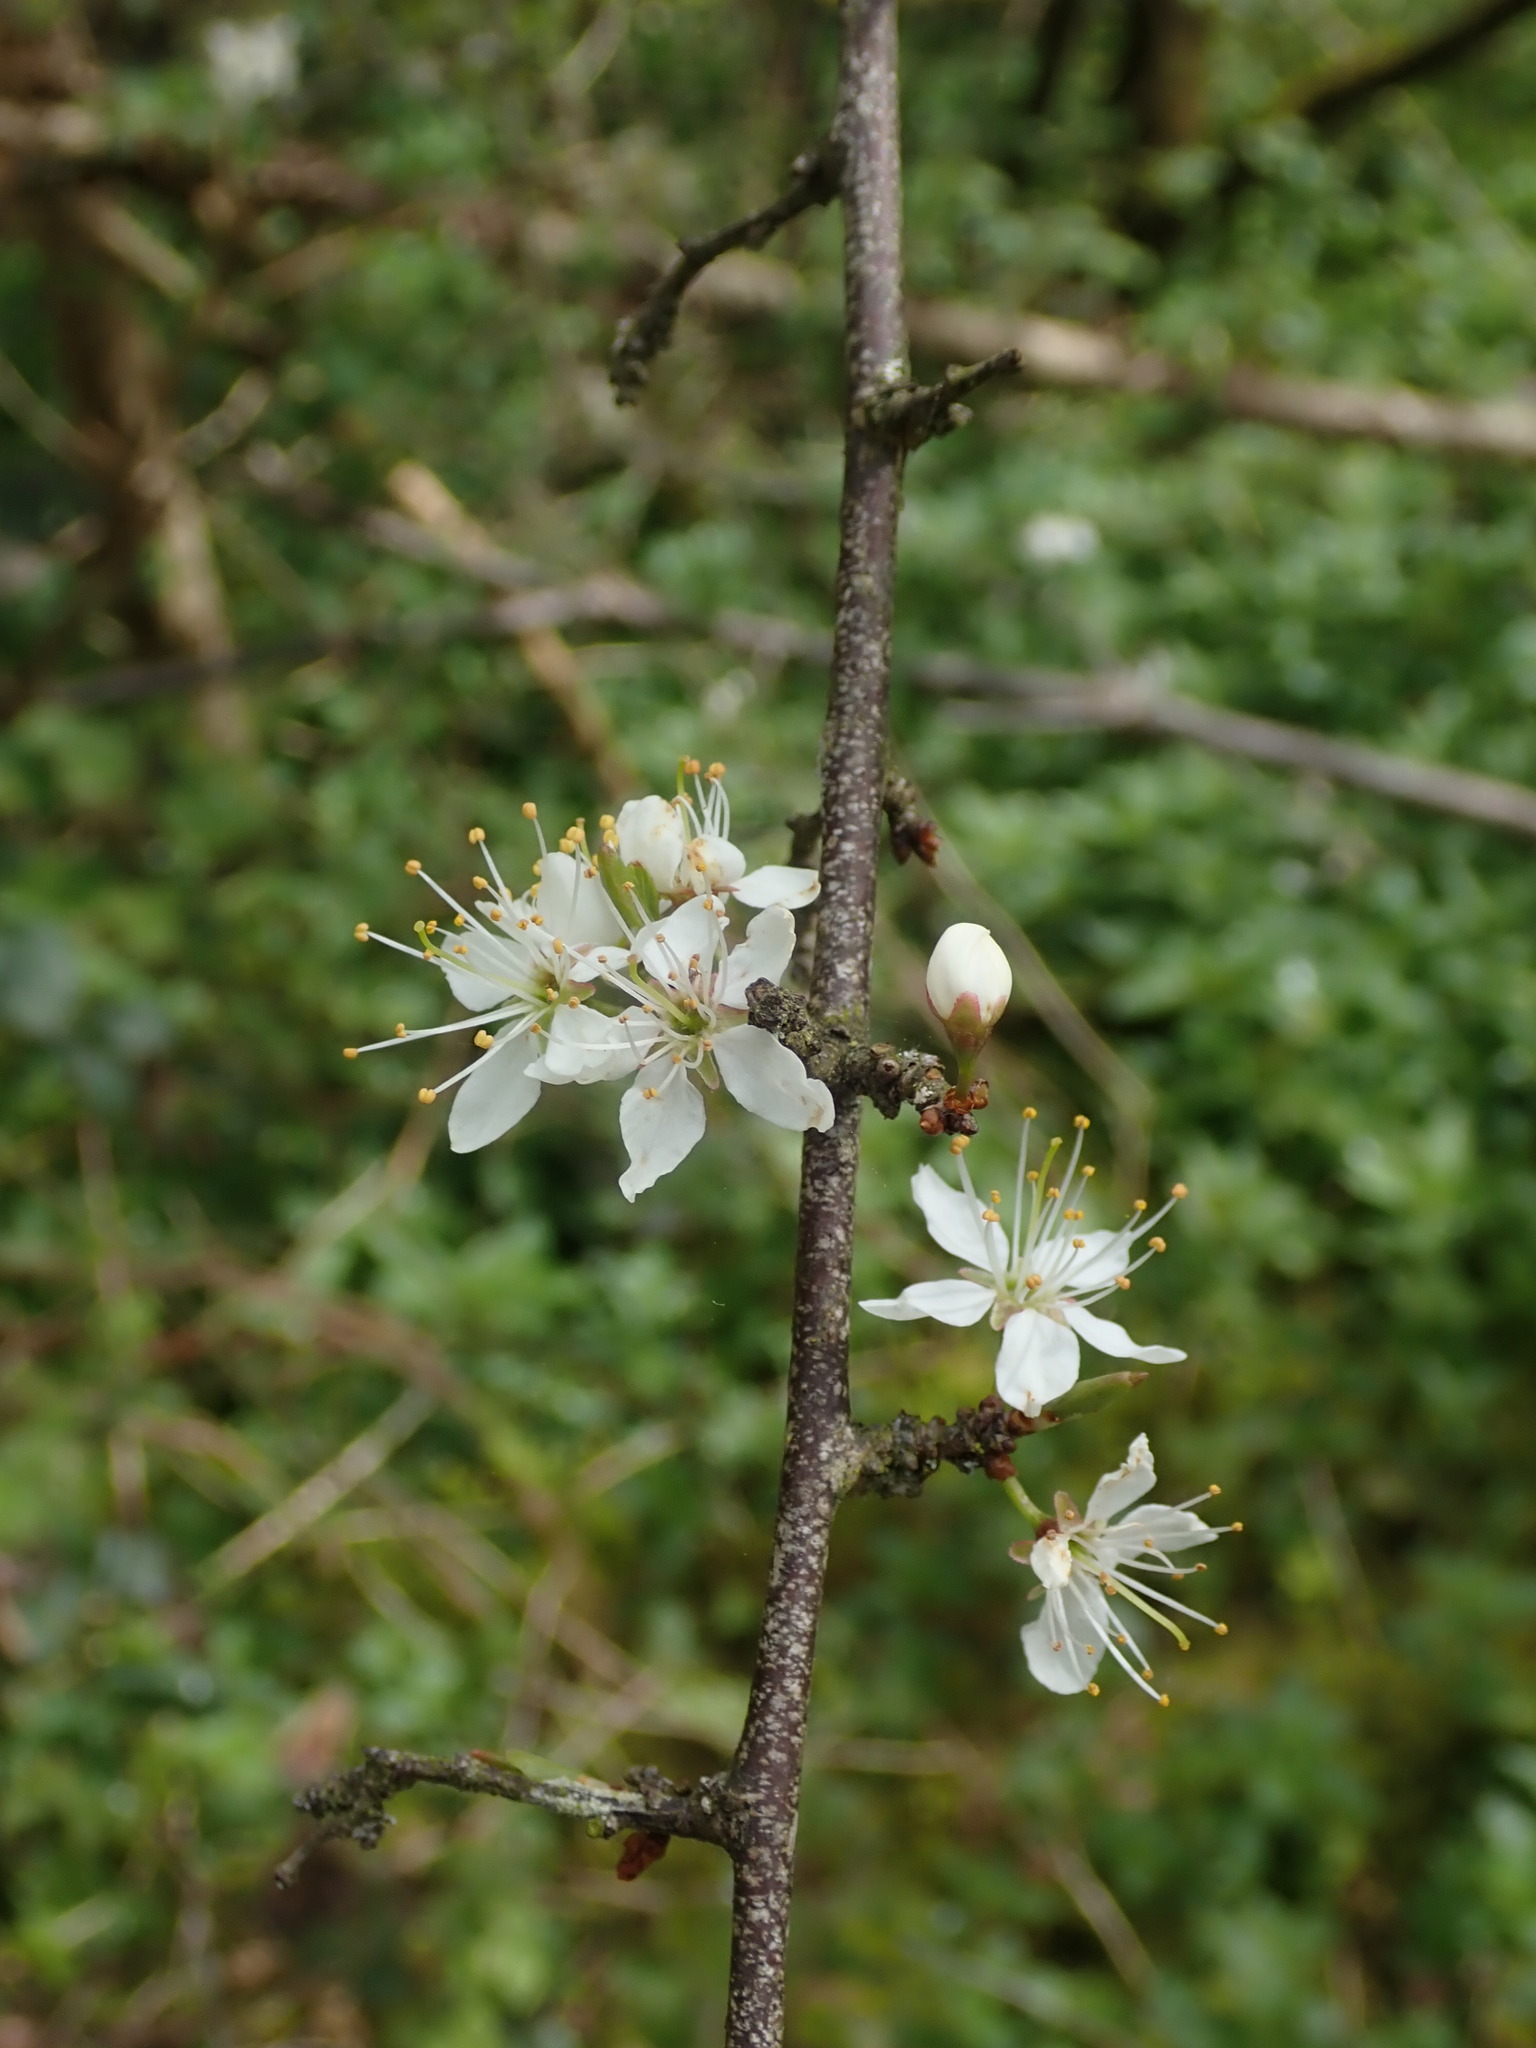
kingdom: Plantae
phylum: Tracheophyta
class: Magnoliopsida
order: Rosales
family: Rosaceae
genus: Prunus
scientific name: Prunus spinosa
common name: Blackthorn
